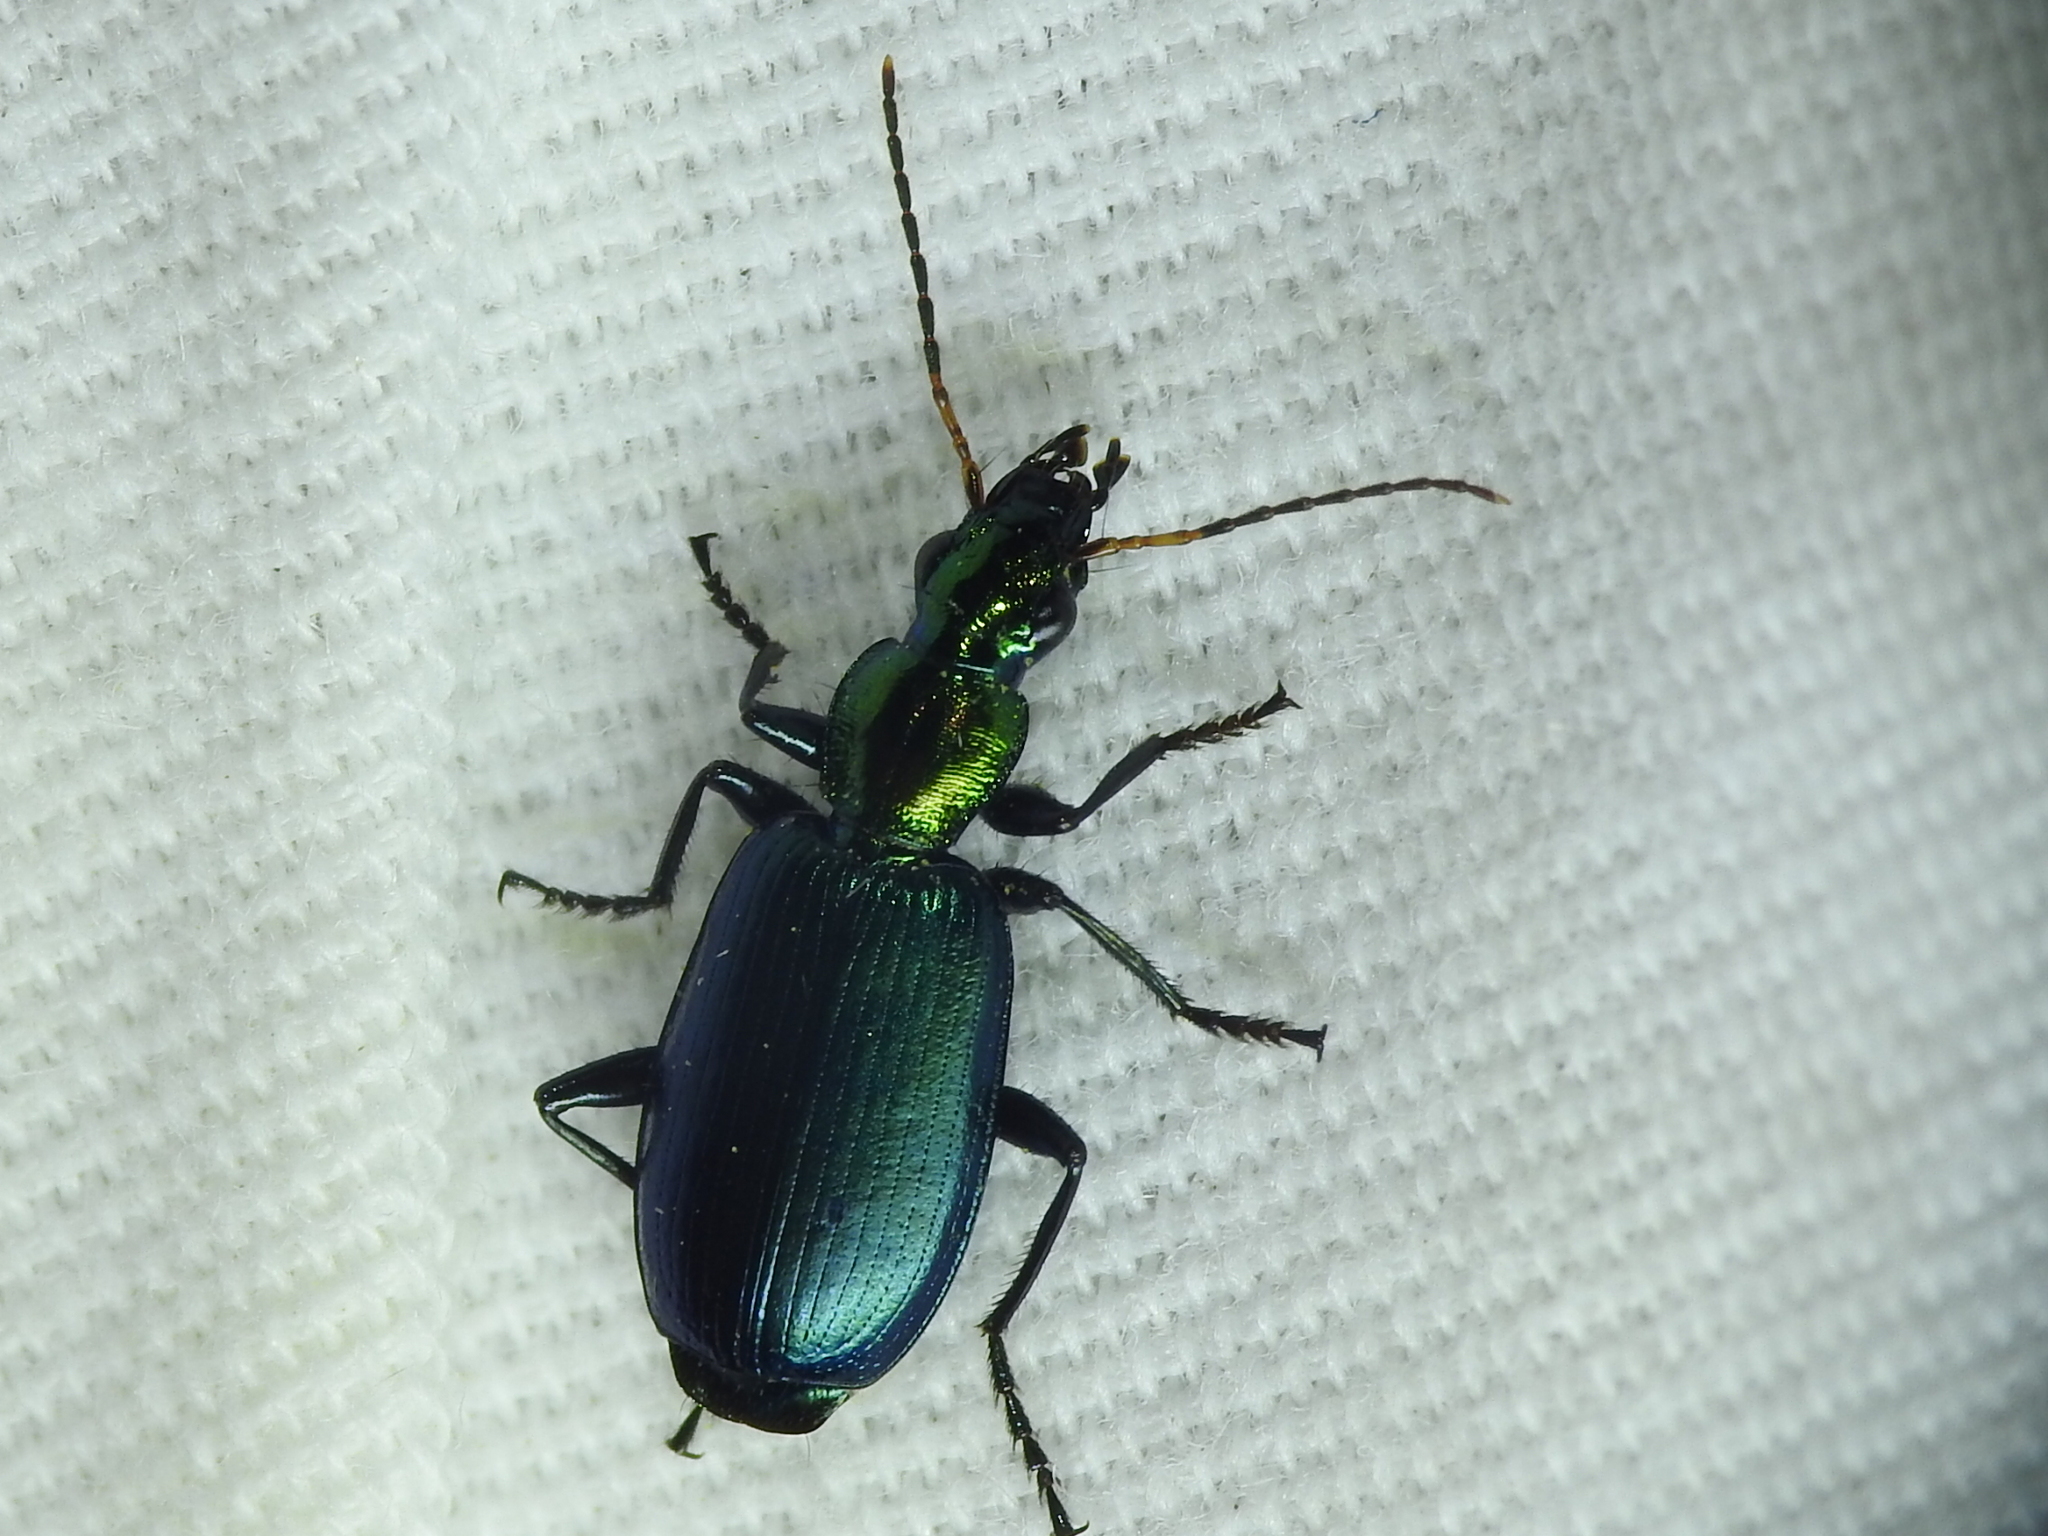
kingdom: Animalia
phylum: Arthropoda
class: Insecta
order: Coleoptera
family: Carabidae
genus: Philophuga
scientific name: Philophuga viridicollis
